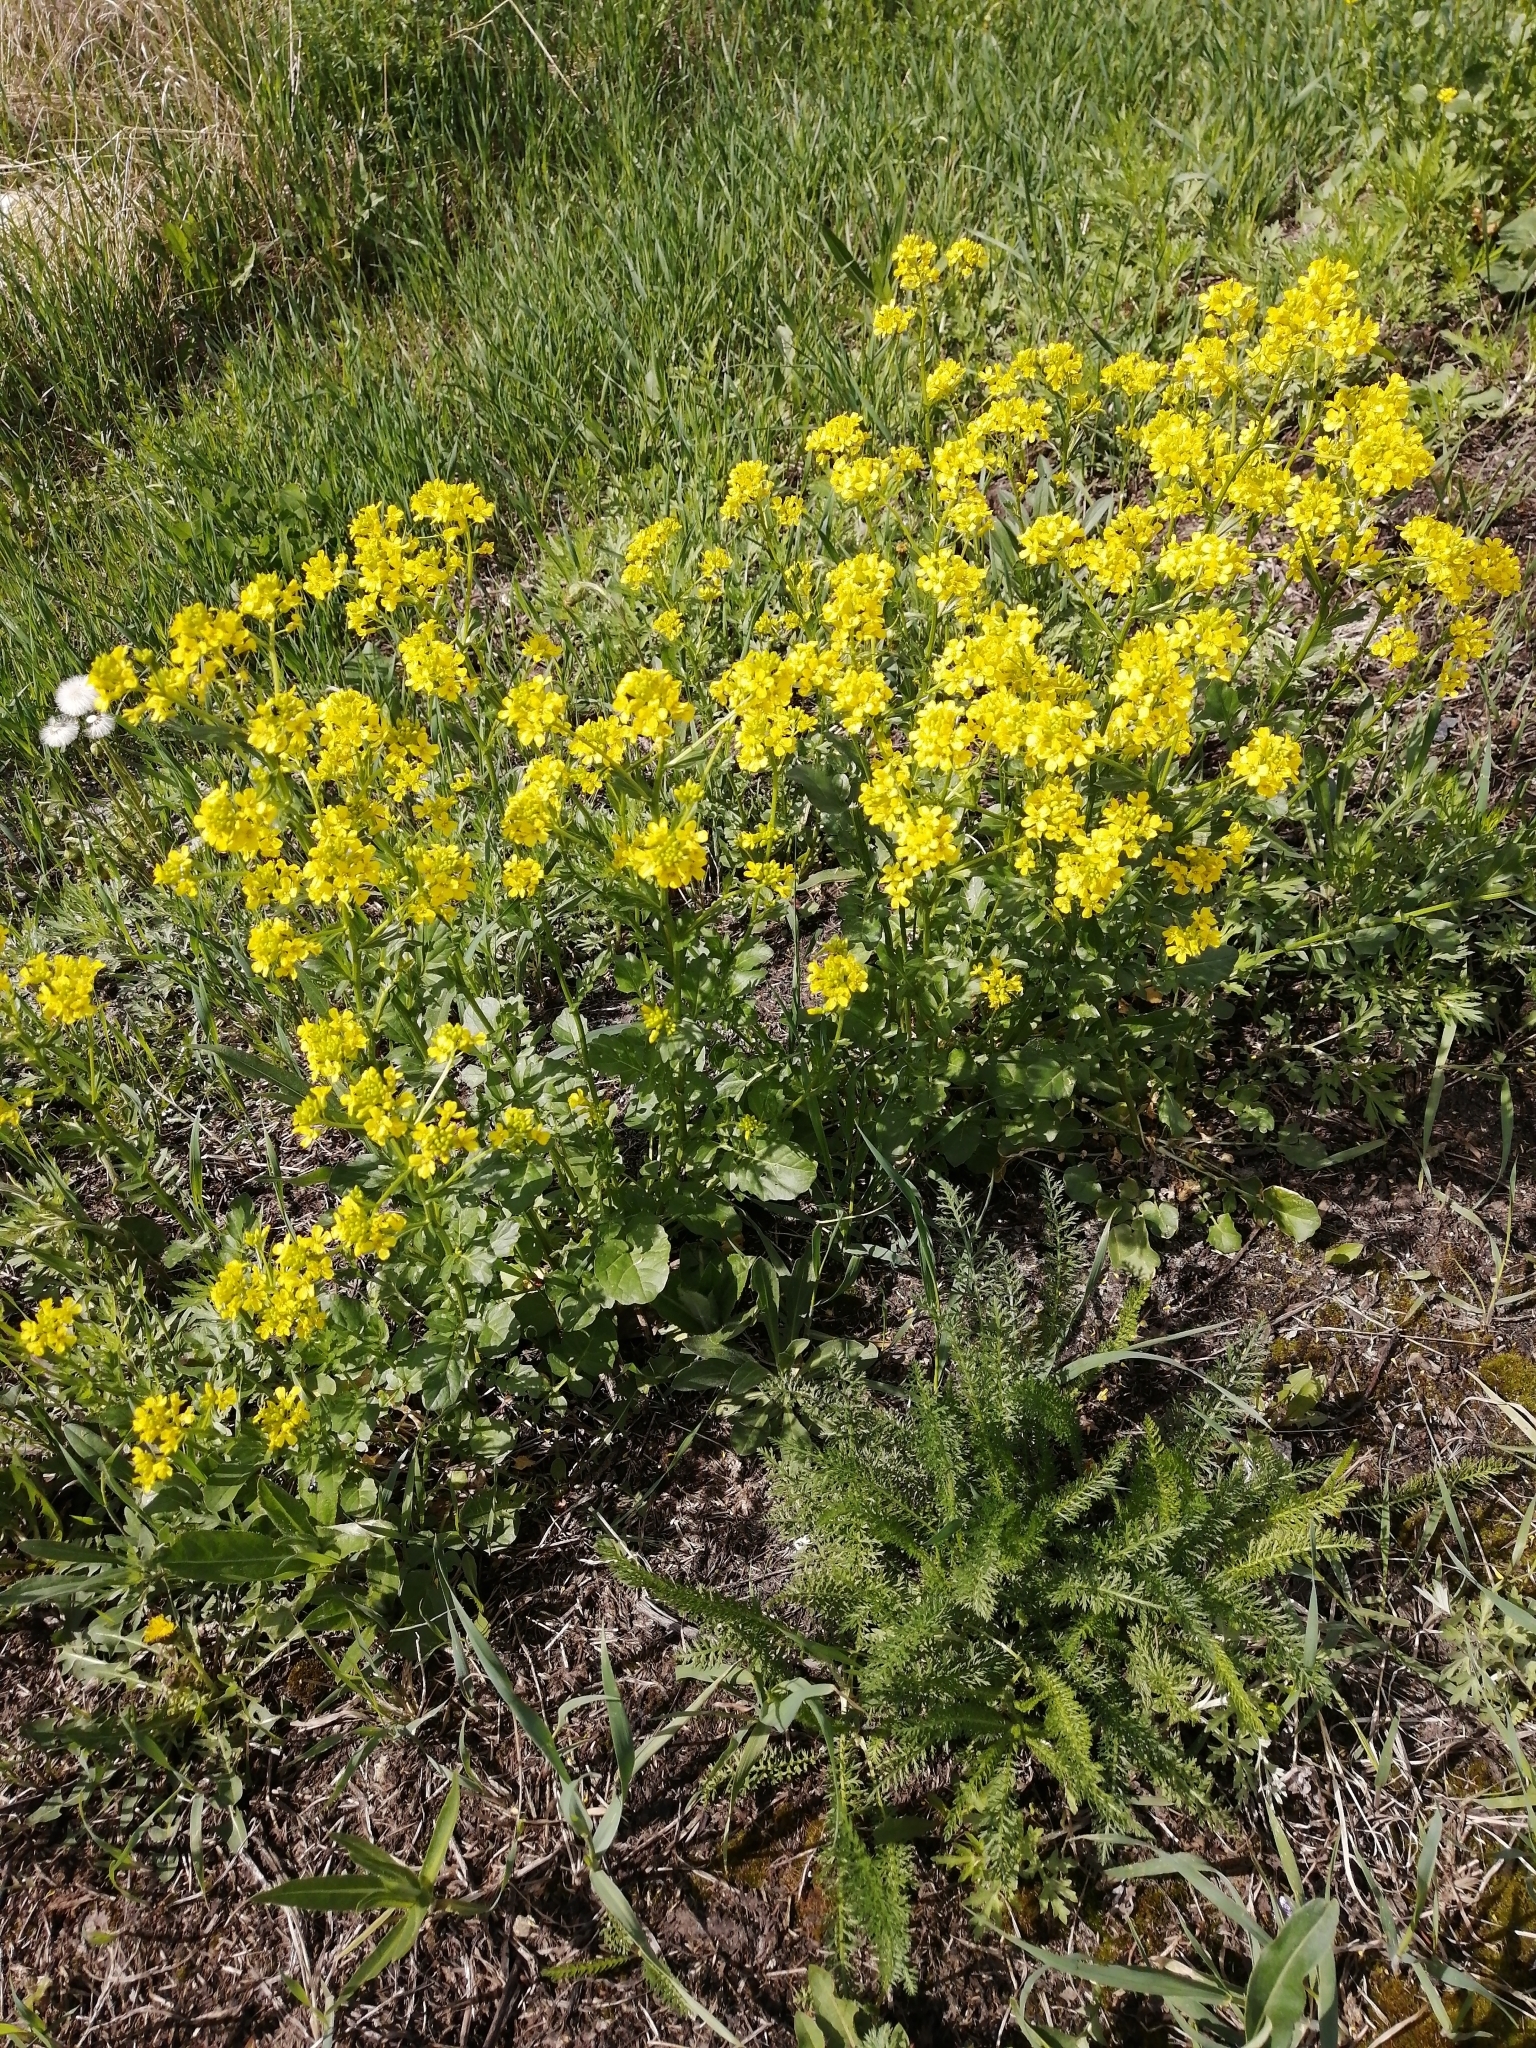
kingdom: Plantae
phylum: Tracheophyta
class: Magnoliopsida
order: Brassicales
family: Brassicaceae
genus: Barbarea
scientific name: Barbarea vulgaris
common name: Cressy-greens
